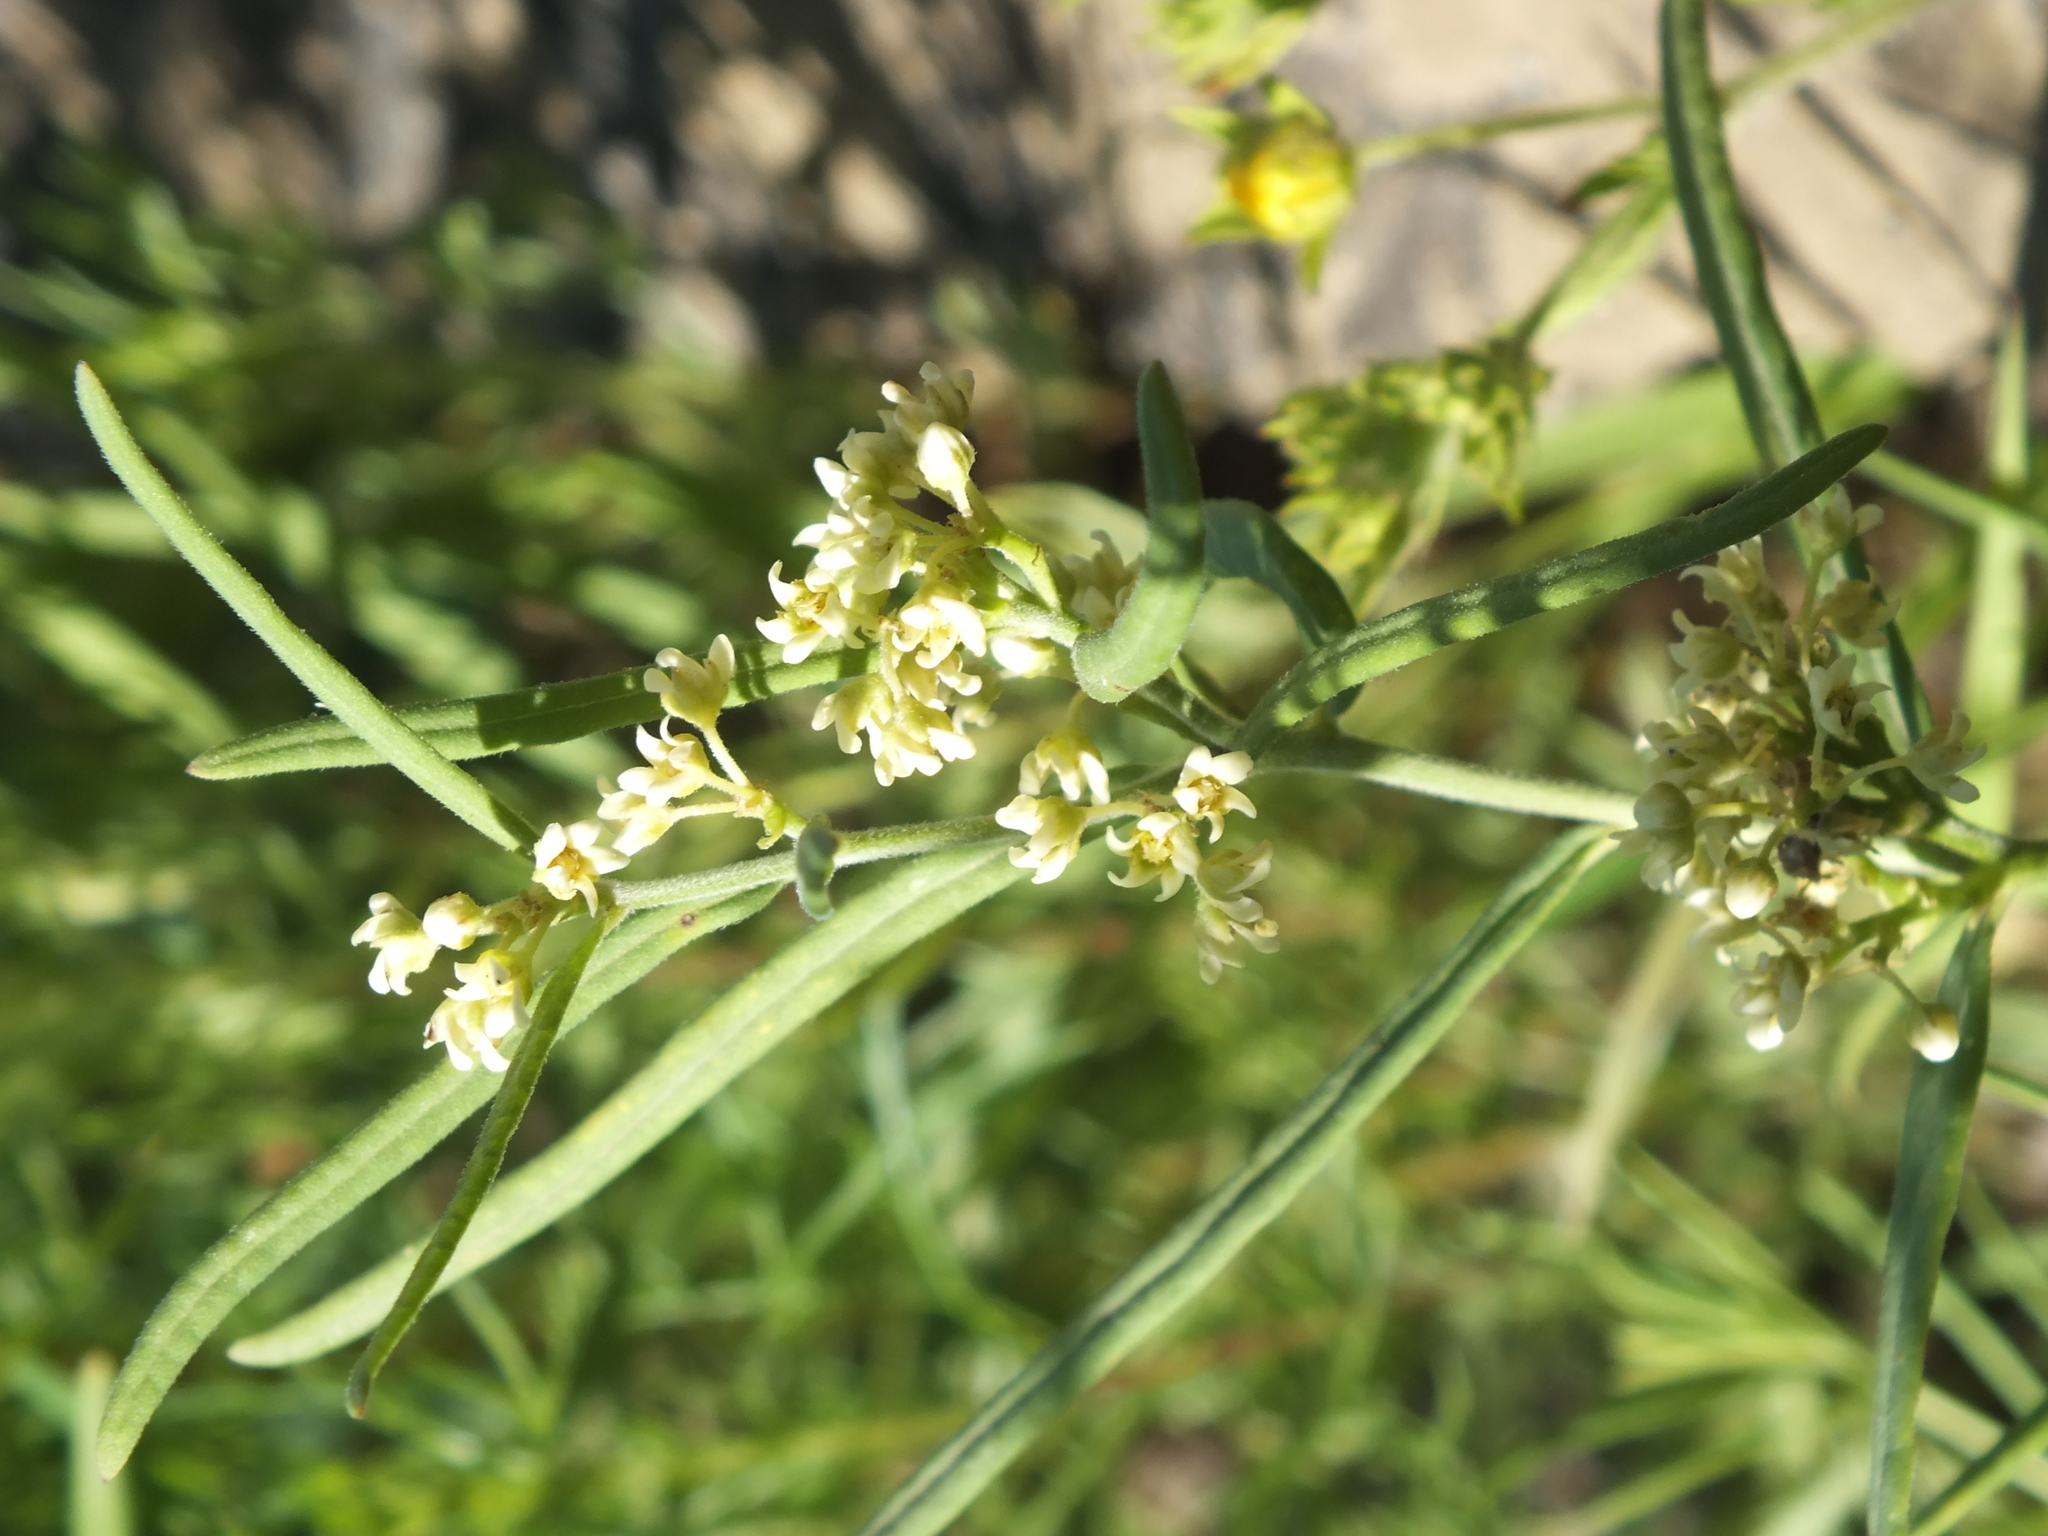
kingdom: Plantae
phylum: Tracheophyta
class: Magnoliopsida
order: Gentianales
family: Apocynaceae
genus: Cynanchum
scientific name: Cynanchum thesioides
